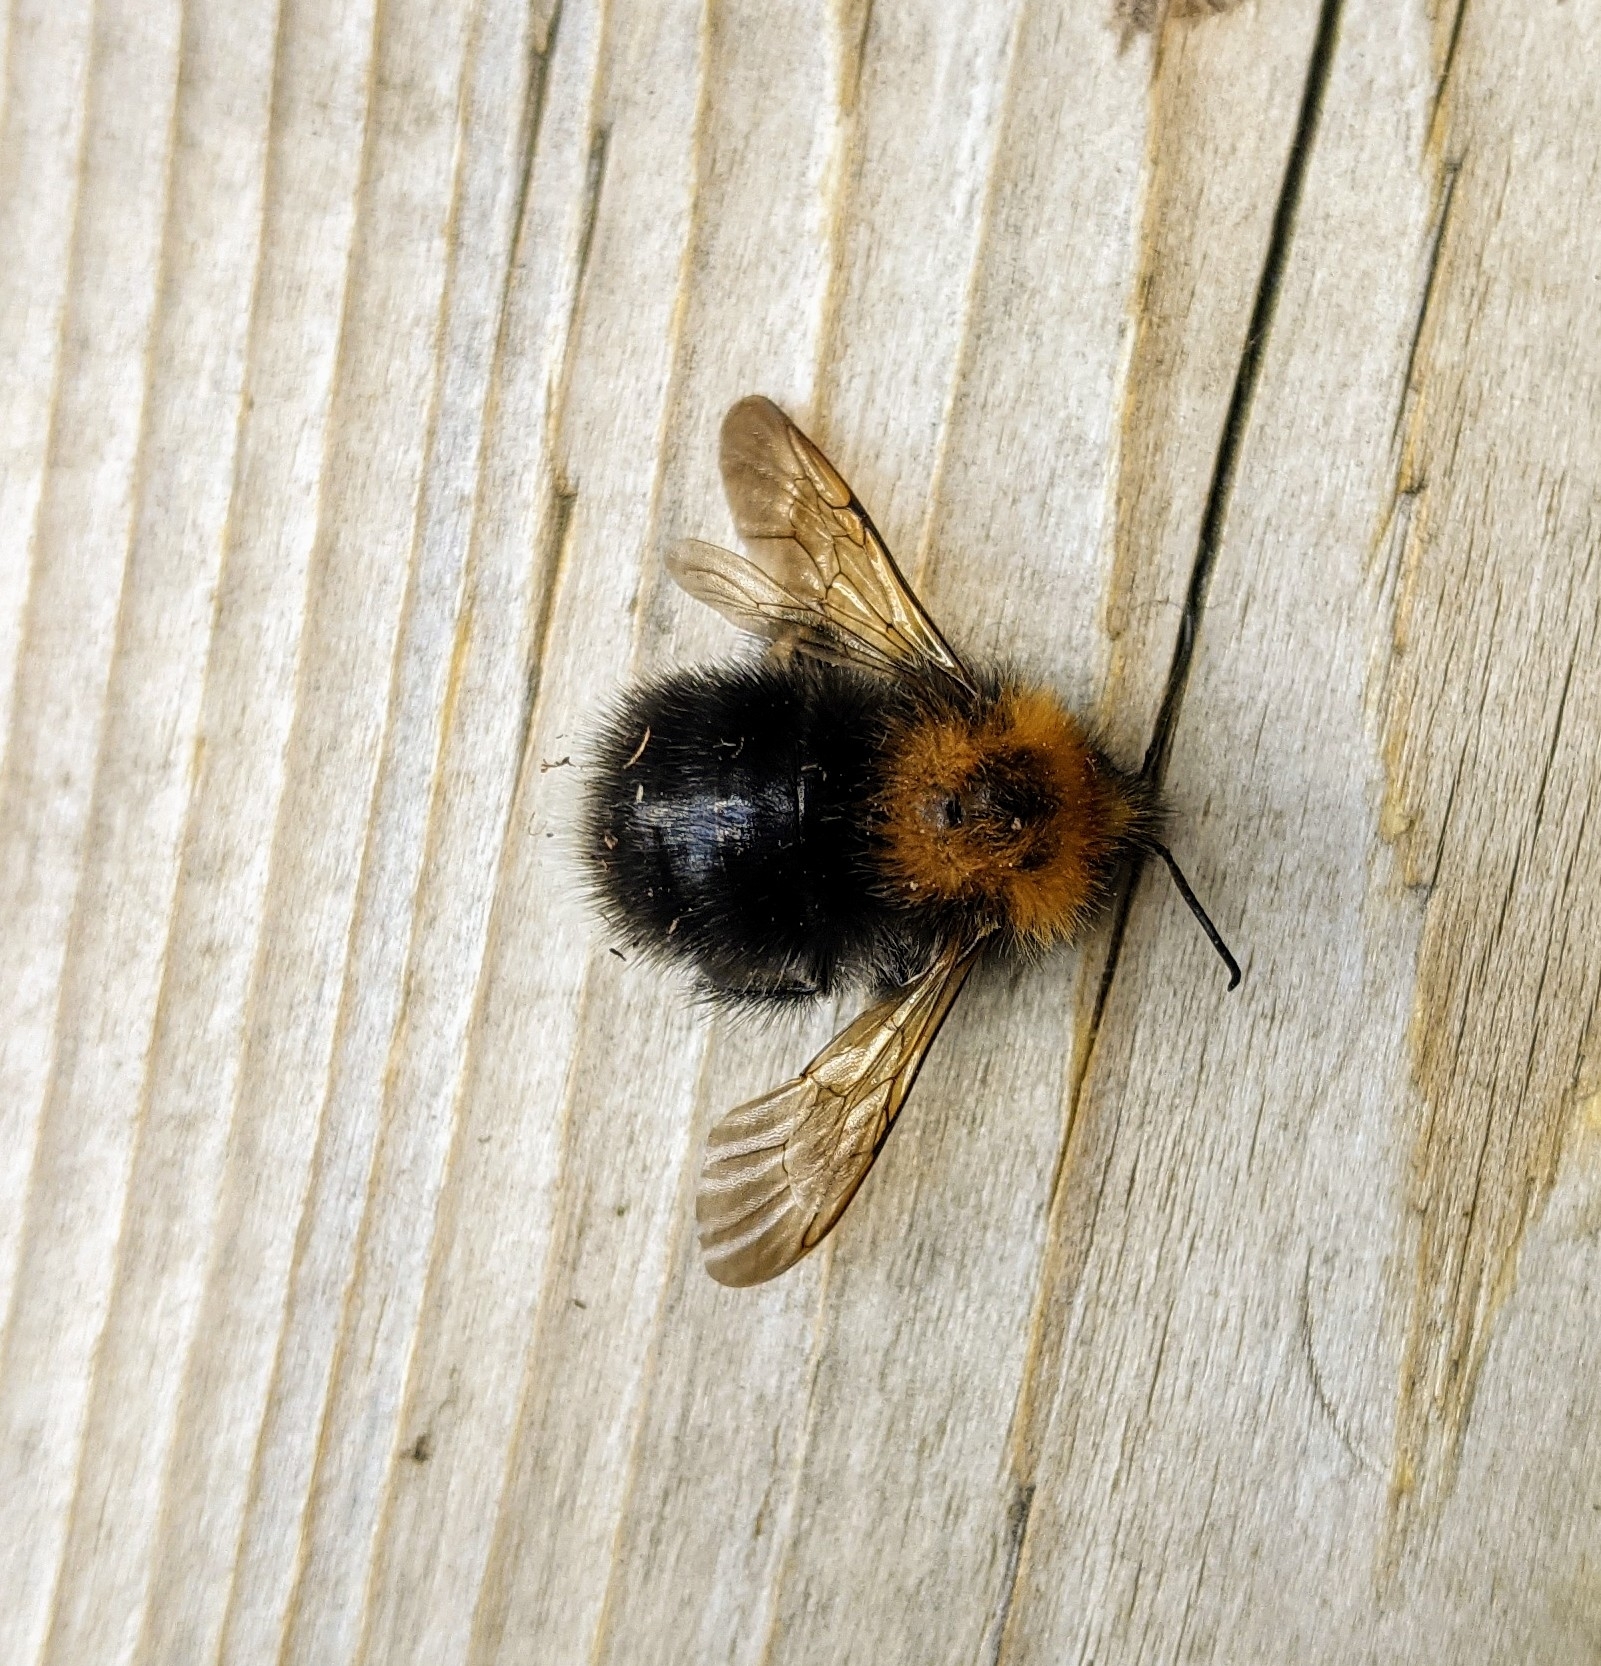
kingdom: Animalia
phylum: Arthropoda
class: Insecta
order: Hymenoptera
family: Apidae
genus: Bombus
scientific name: Bombus hypnorum
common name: New garden bumblebee
